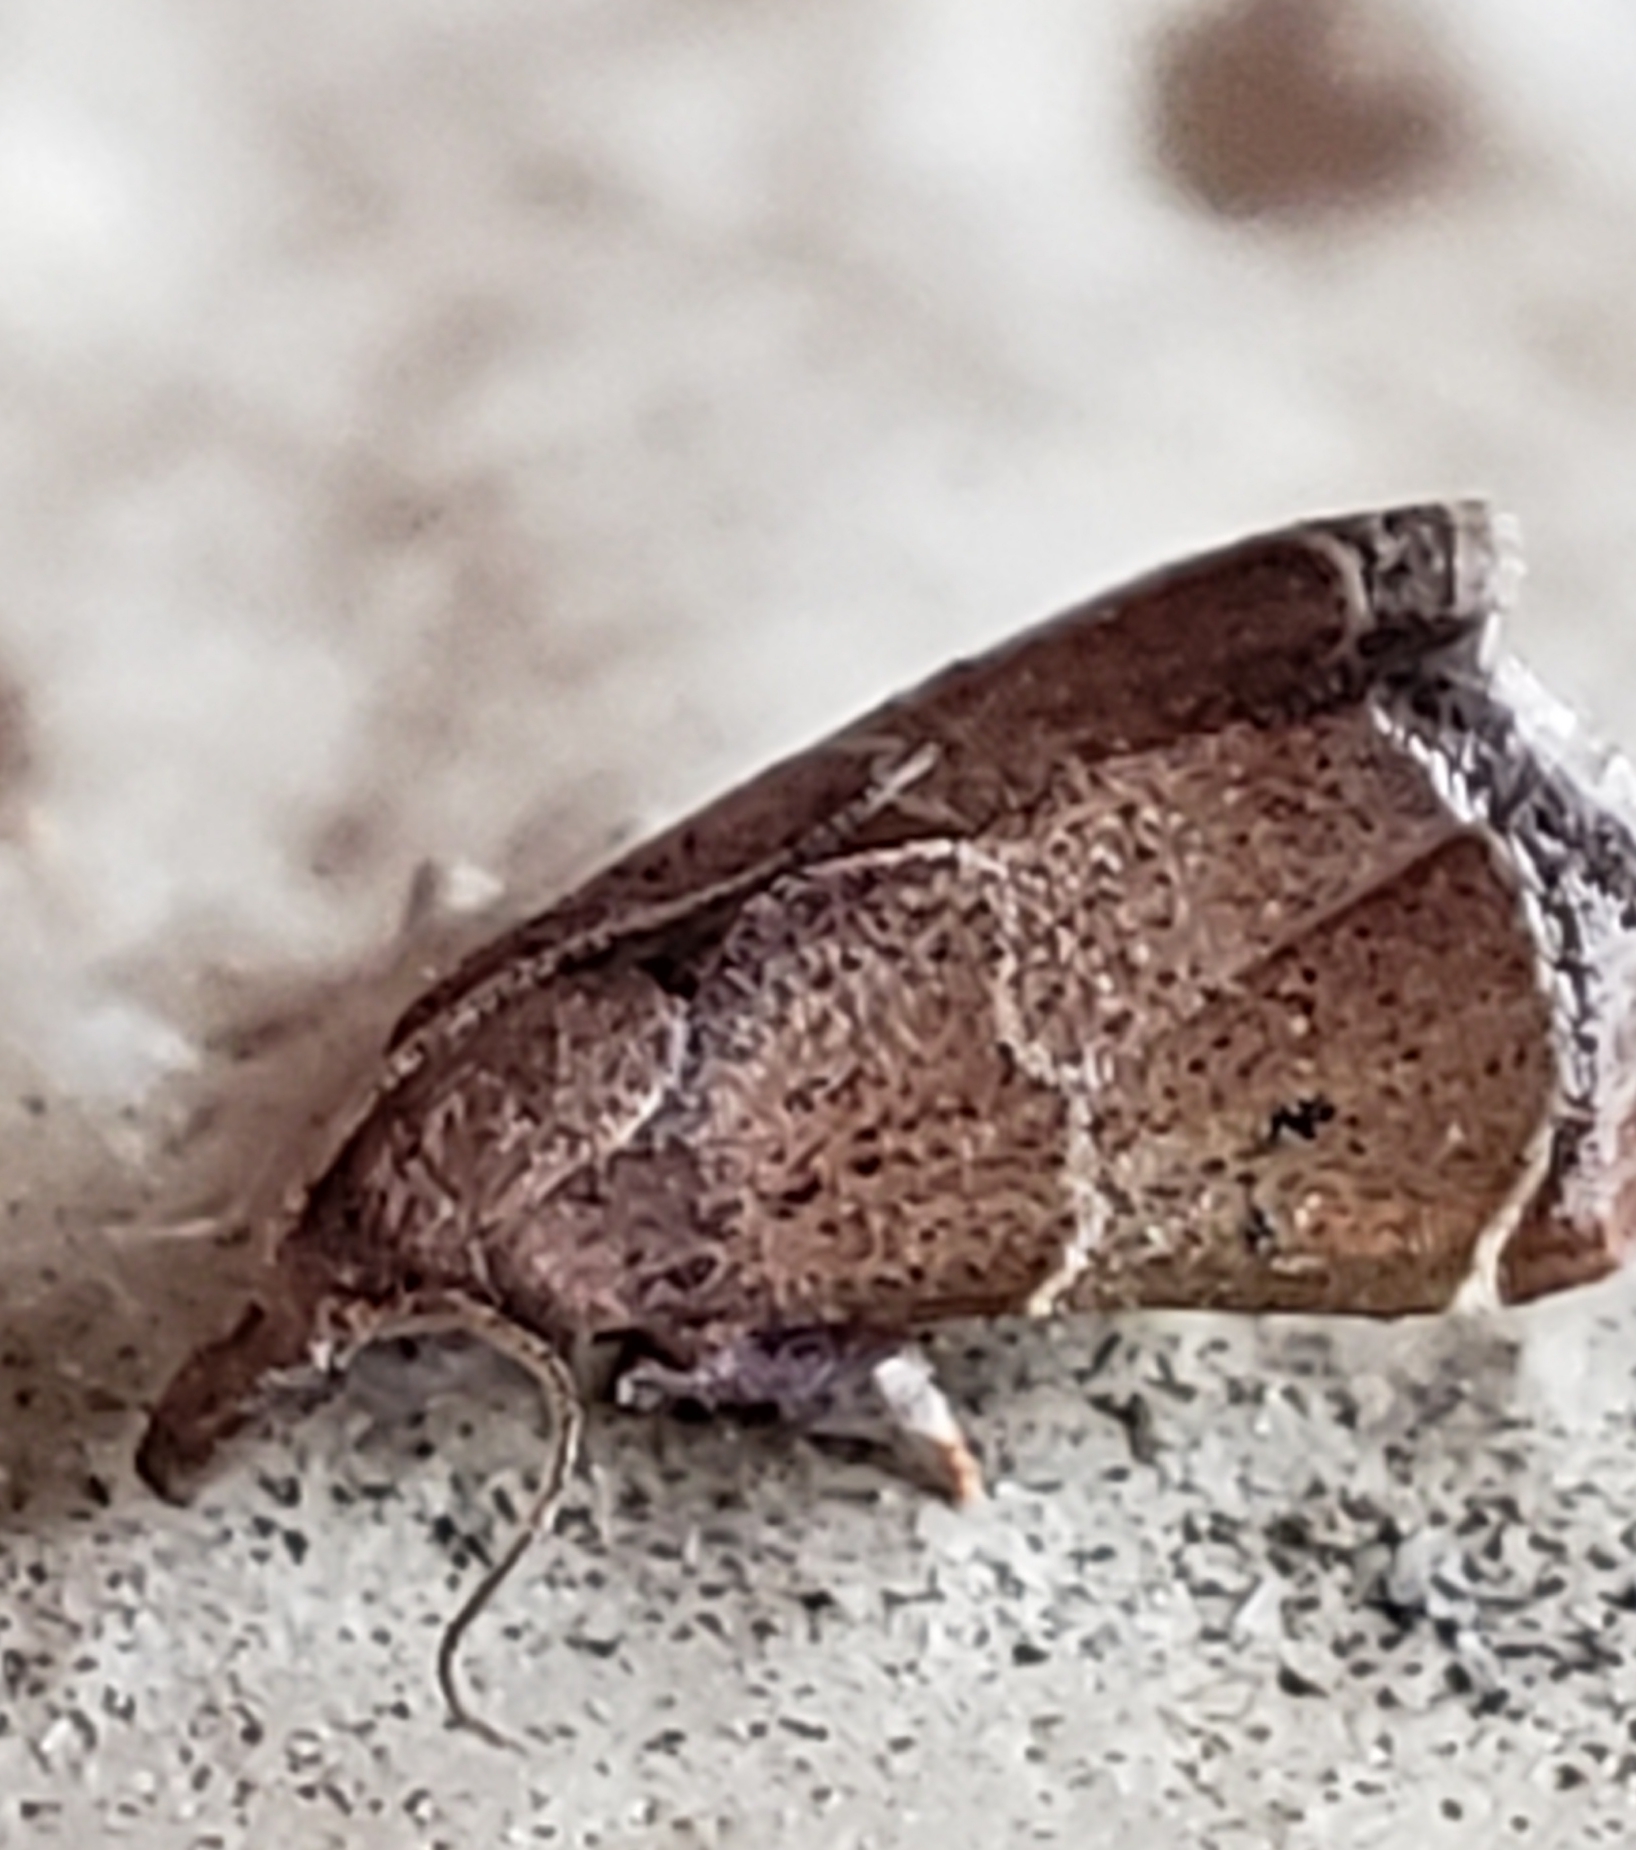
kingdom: Animalia
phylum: Arthropoda
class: Insecta
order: Lepidoptera
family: Pyralidae
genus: Streptopalpia
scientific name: Streptopalpia minusculalis
